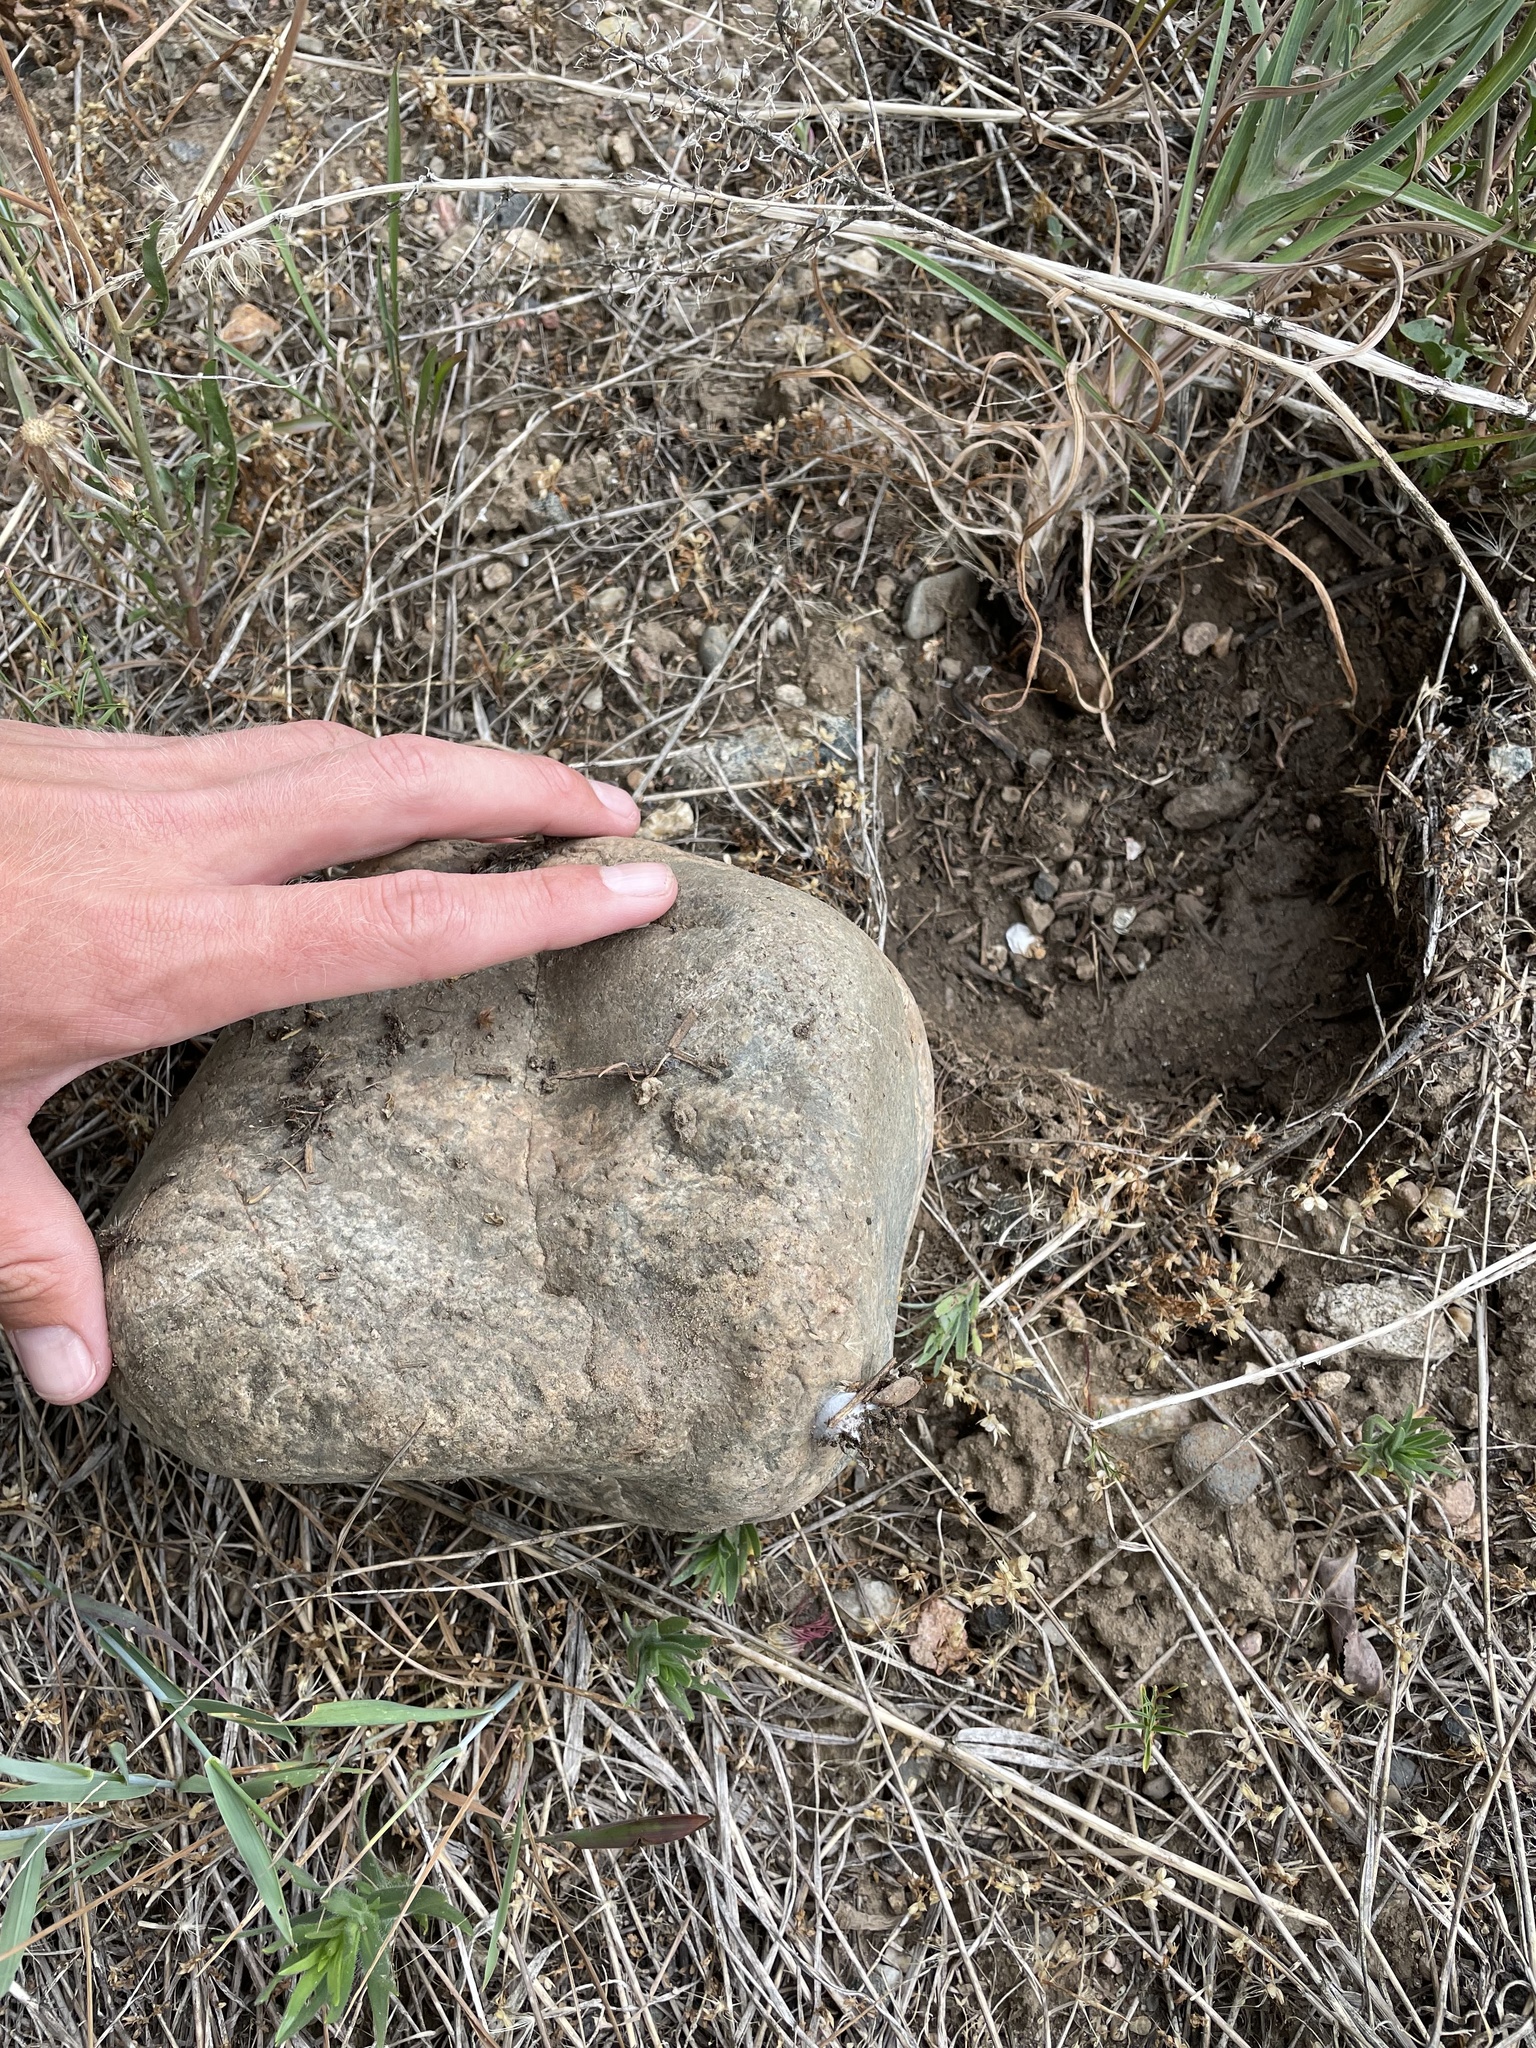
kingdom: Animalia
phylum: Arthropoda
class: Insecta
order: Hymenoptera
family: Formicidae
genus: Tapinoma
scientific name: Tapinoma sessile
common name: Odorous house ant
